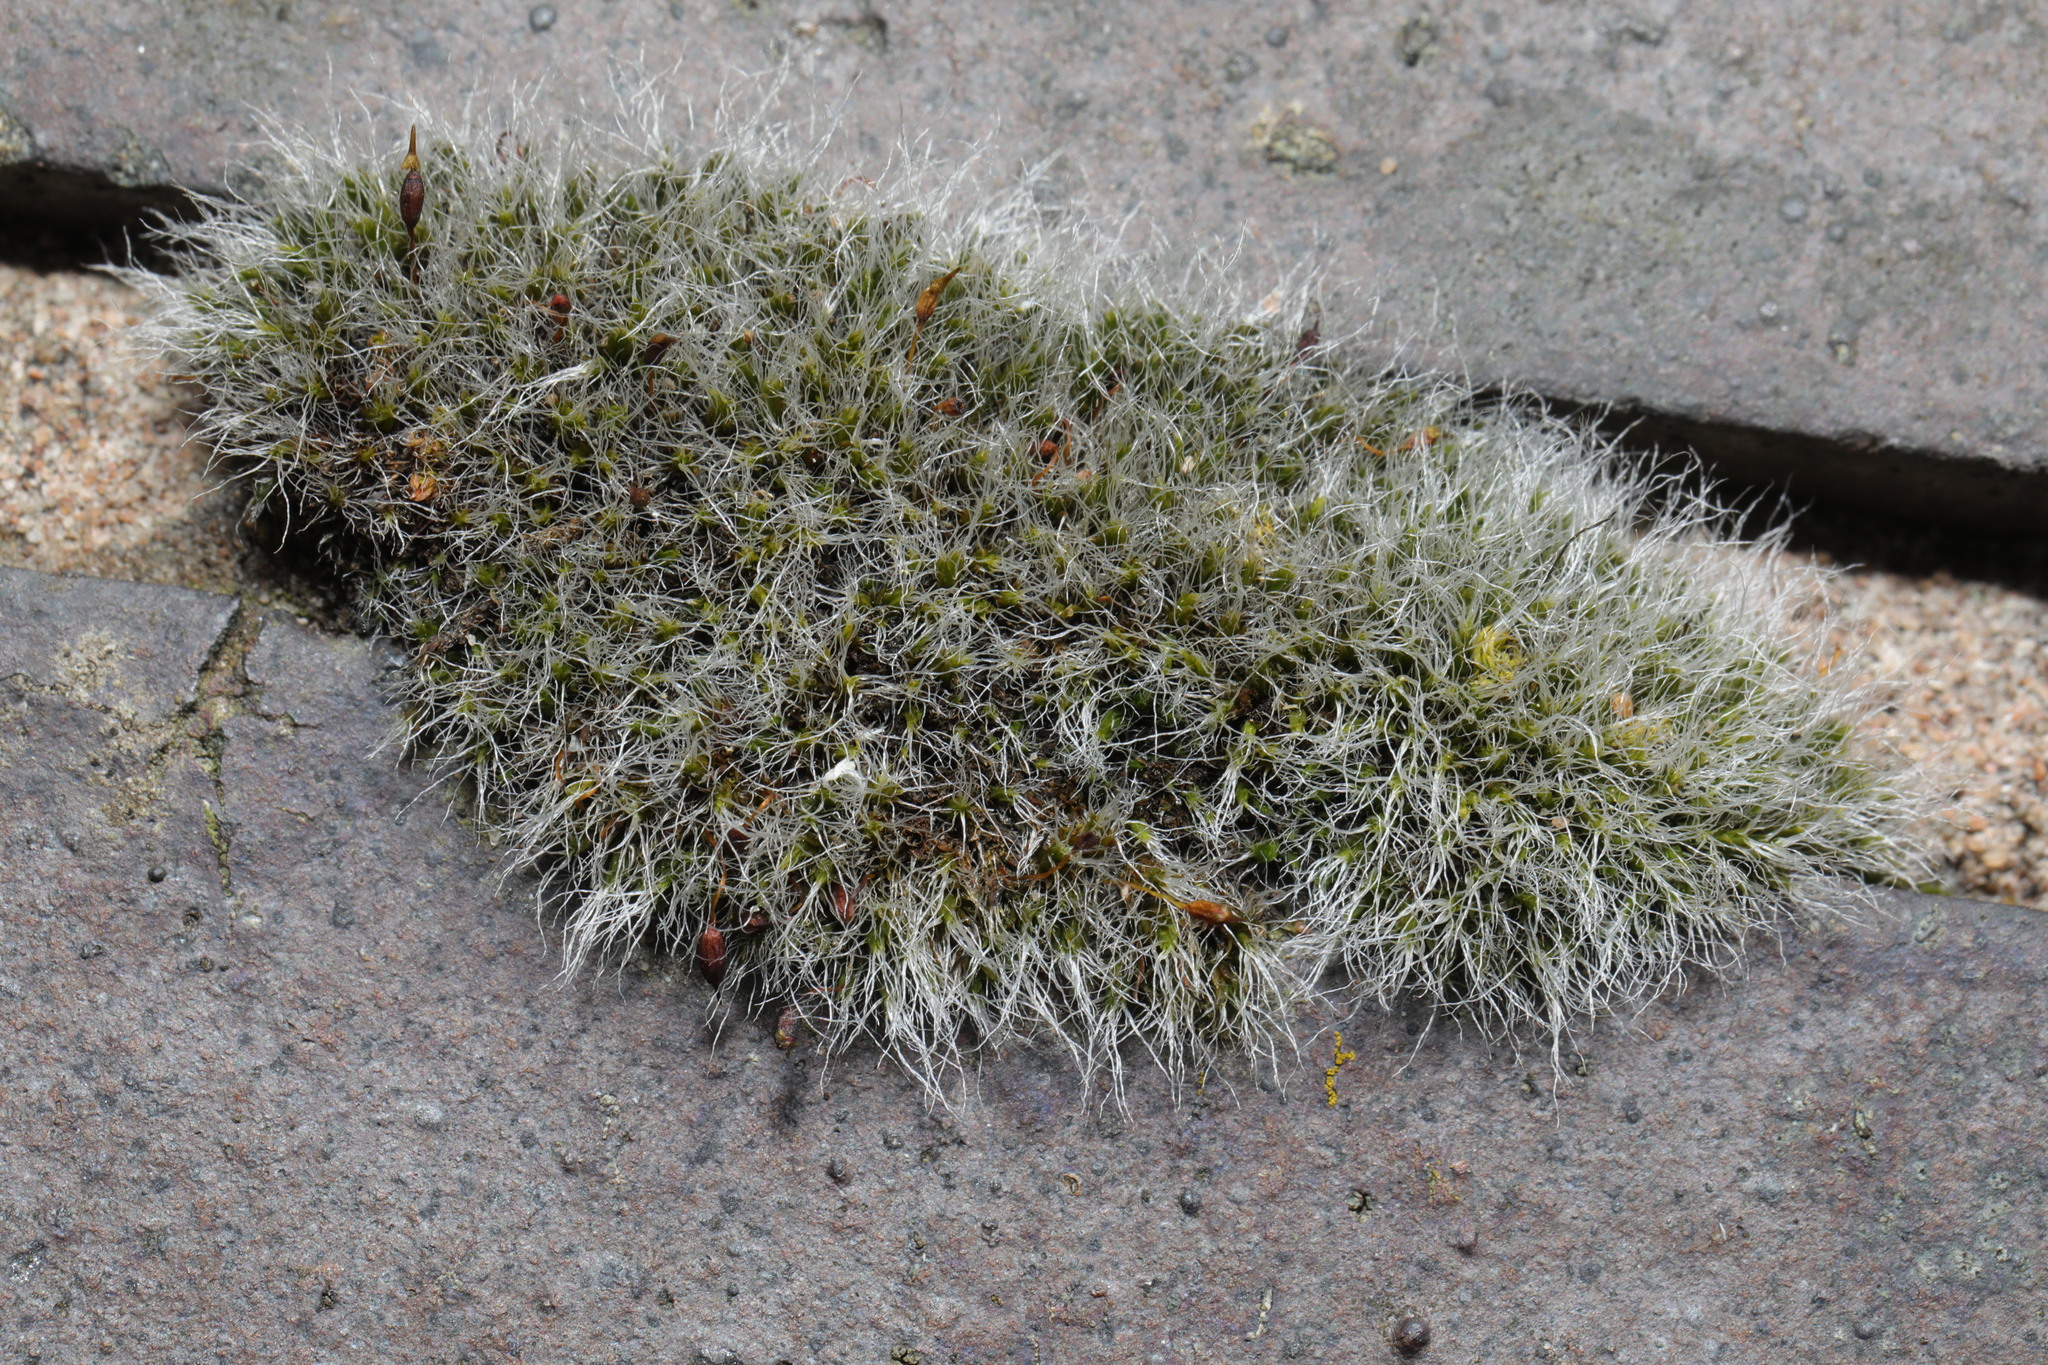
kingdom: Plantae
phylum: Bryophyta
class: Bryopsida
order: Grimmiales
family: Grimmiaceae
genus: Grimmia
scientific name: Grimmia pulvinata
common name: Grey-cushioned grimmia
